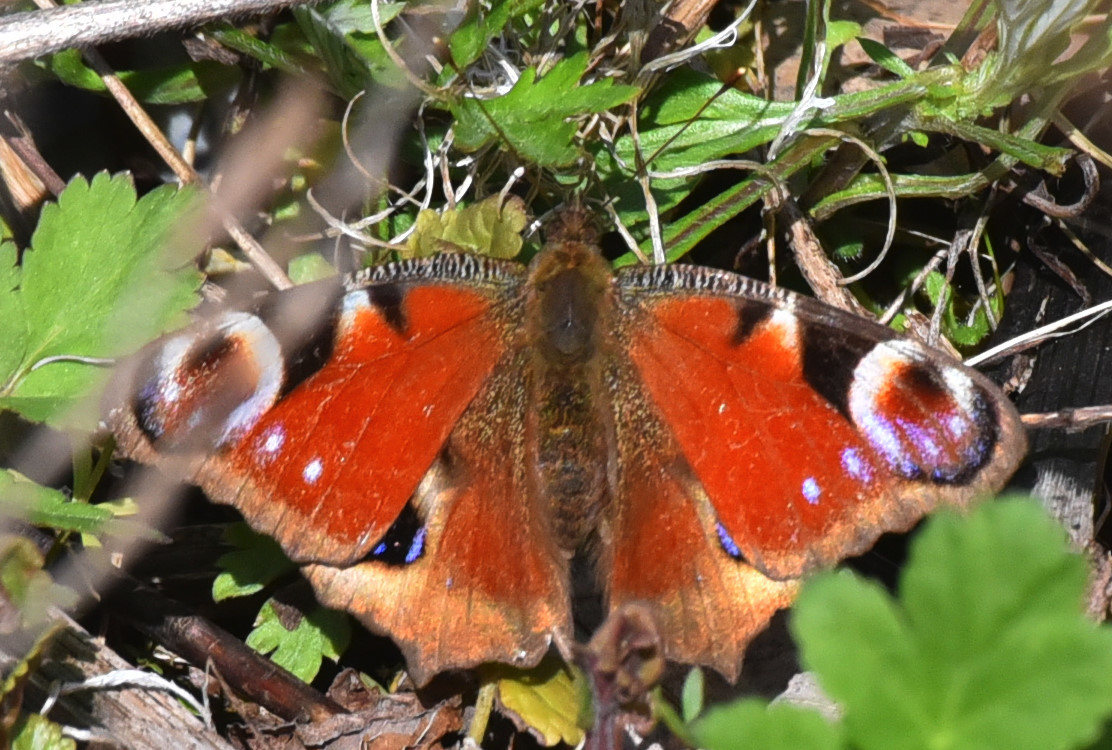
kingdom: Animalia
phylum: Arthropoda
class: Insecta
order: Lepidoptera
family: Nymphalidae
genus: Aglais
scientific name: Aglais io
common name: Peacock
